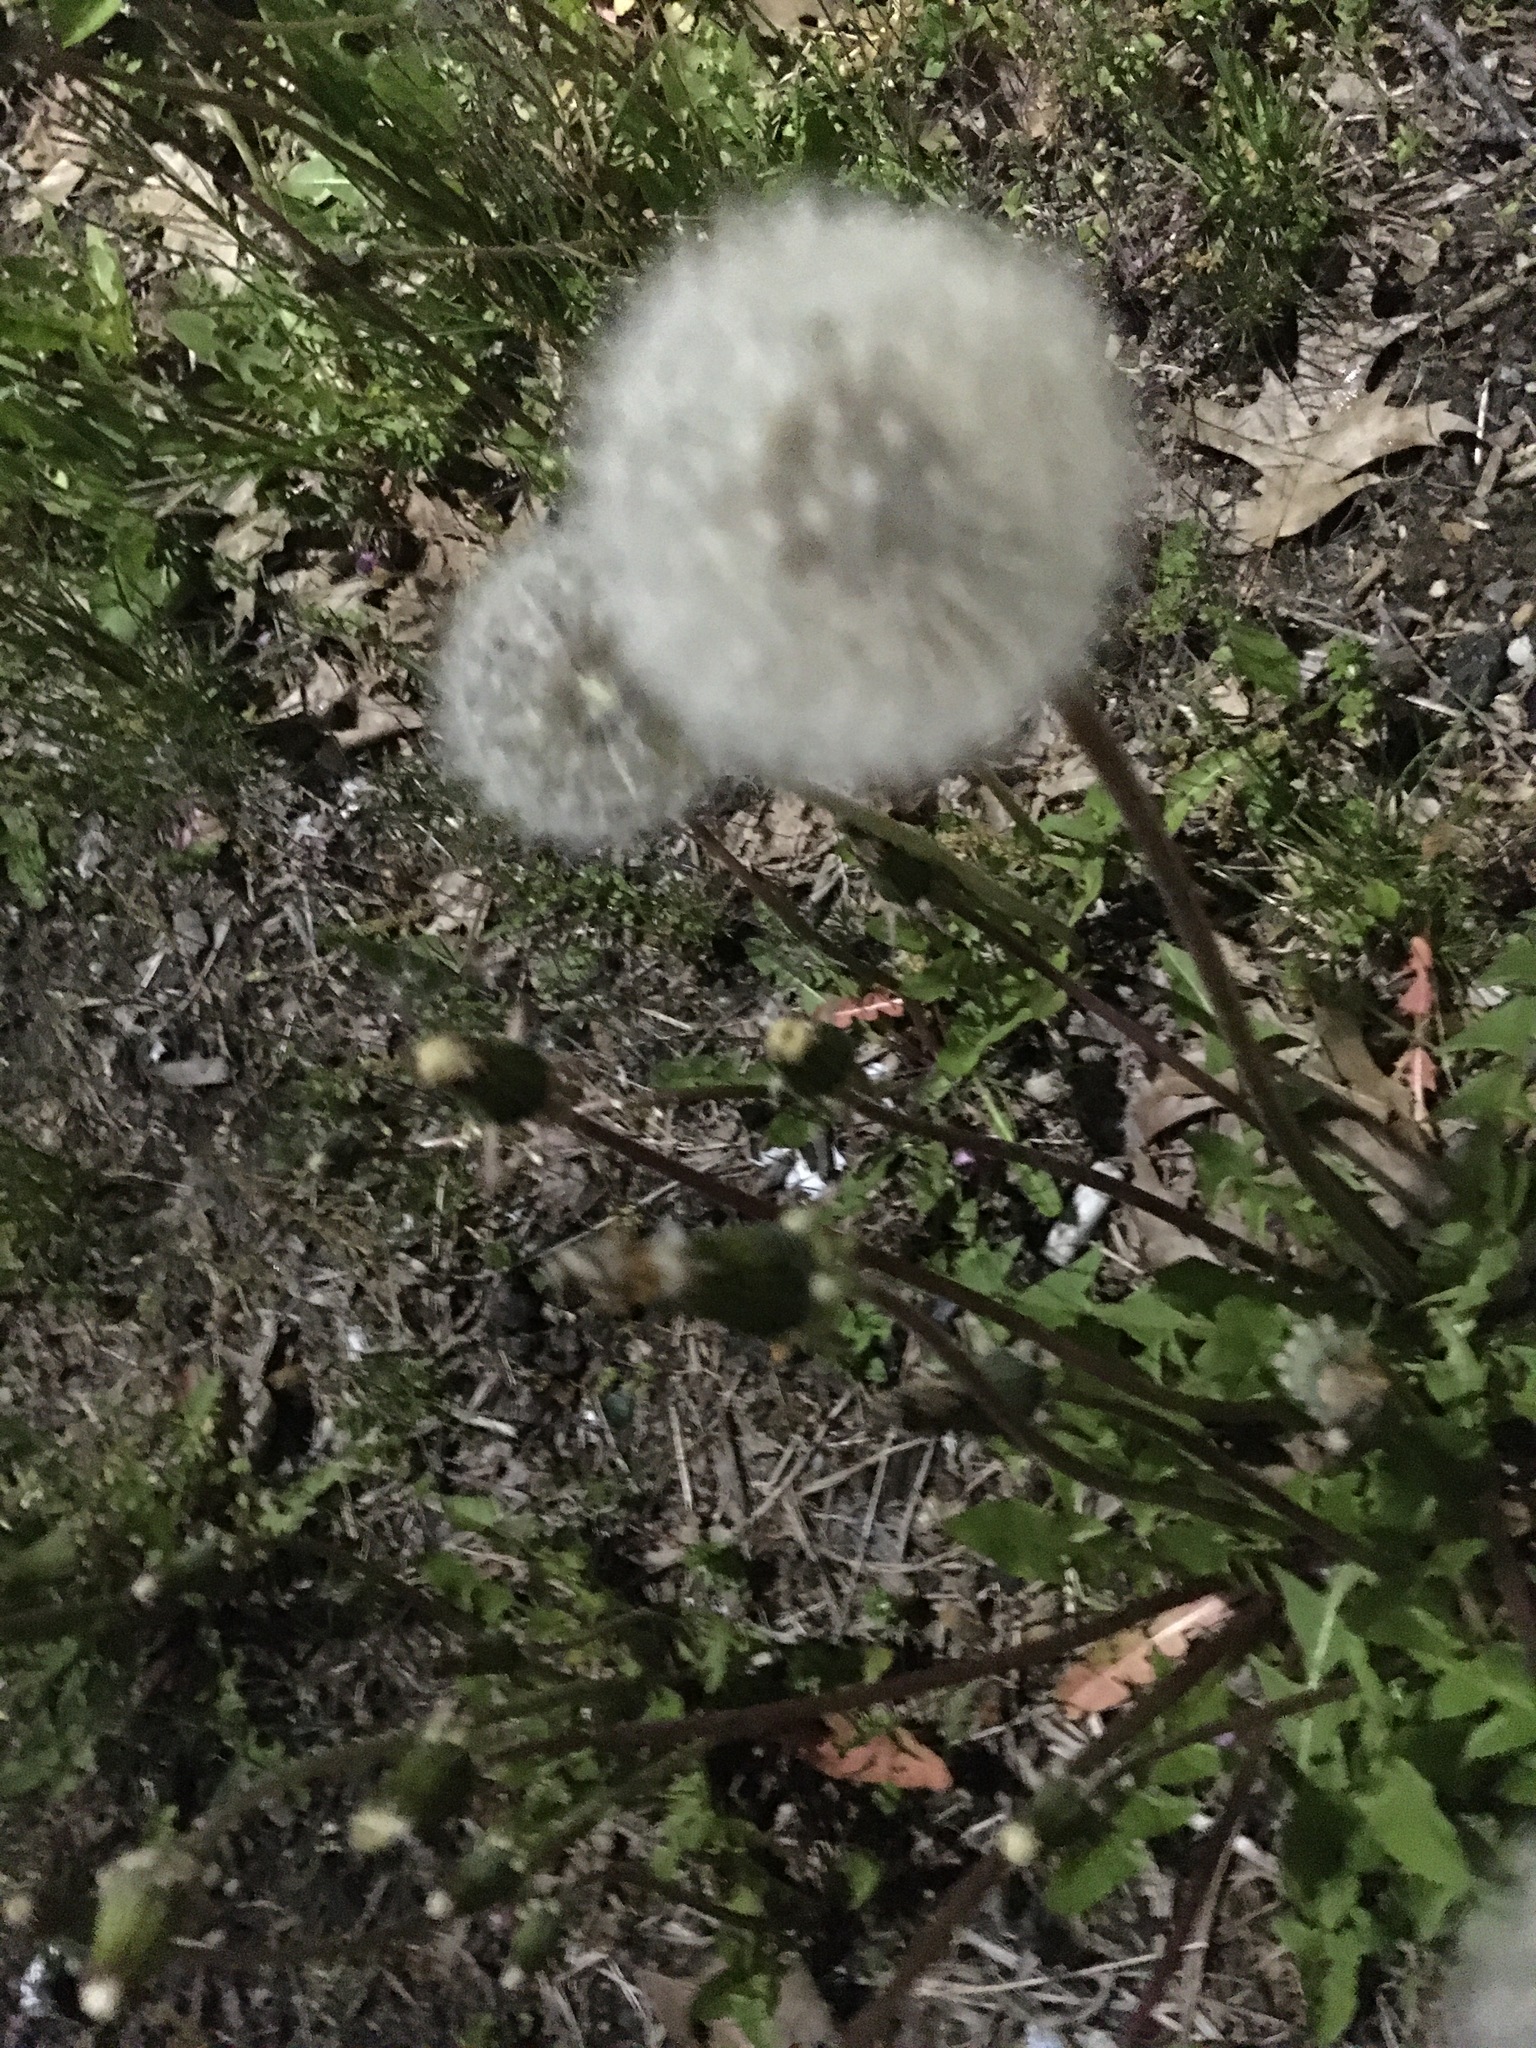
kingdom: Plantae
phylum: Tracheophyta
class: Magnoliopsida
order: Asterales
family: Asteraceae
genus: Taraxacum
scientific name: Taraxacum officinale
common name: Common dandelion
